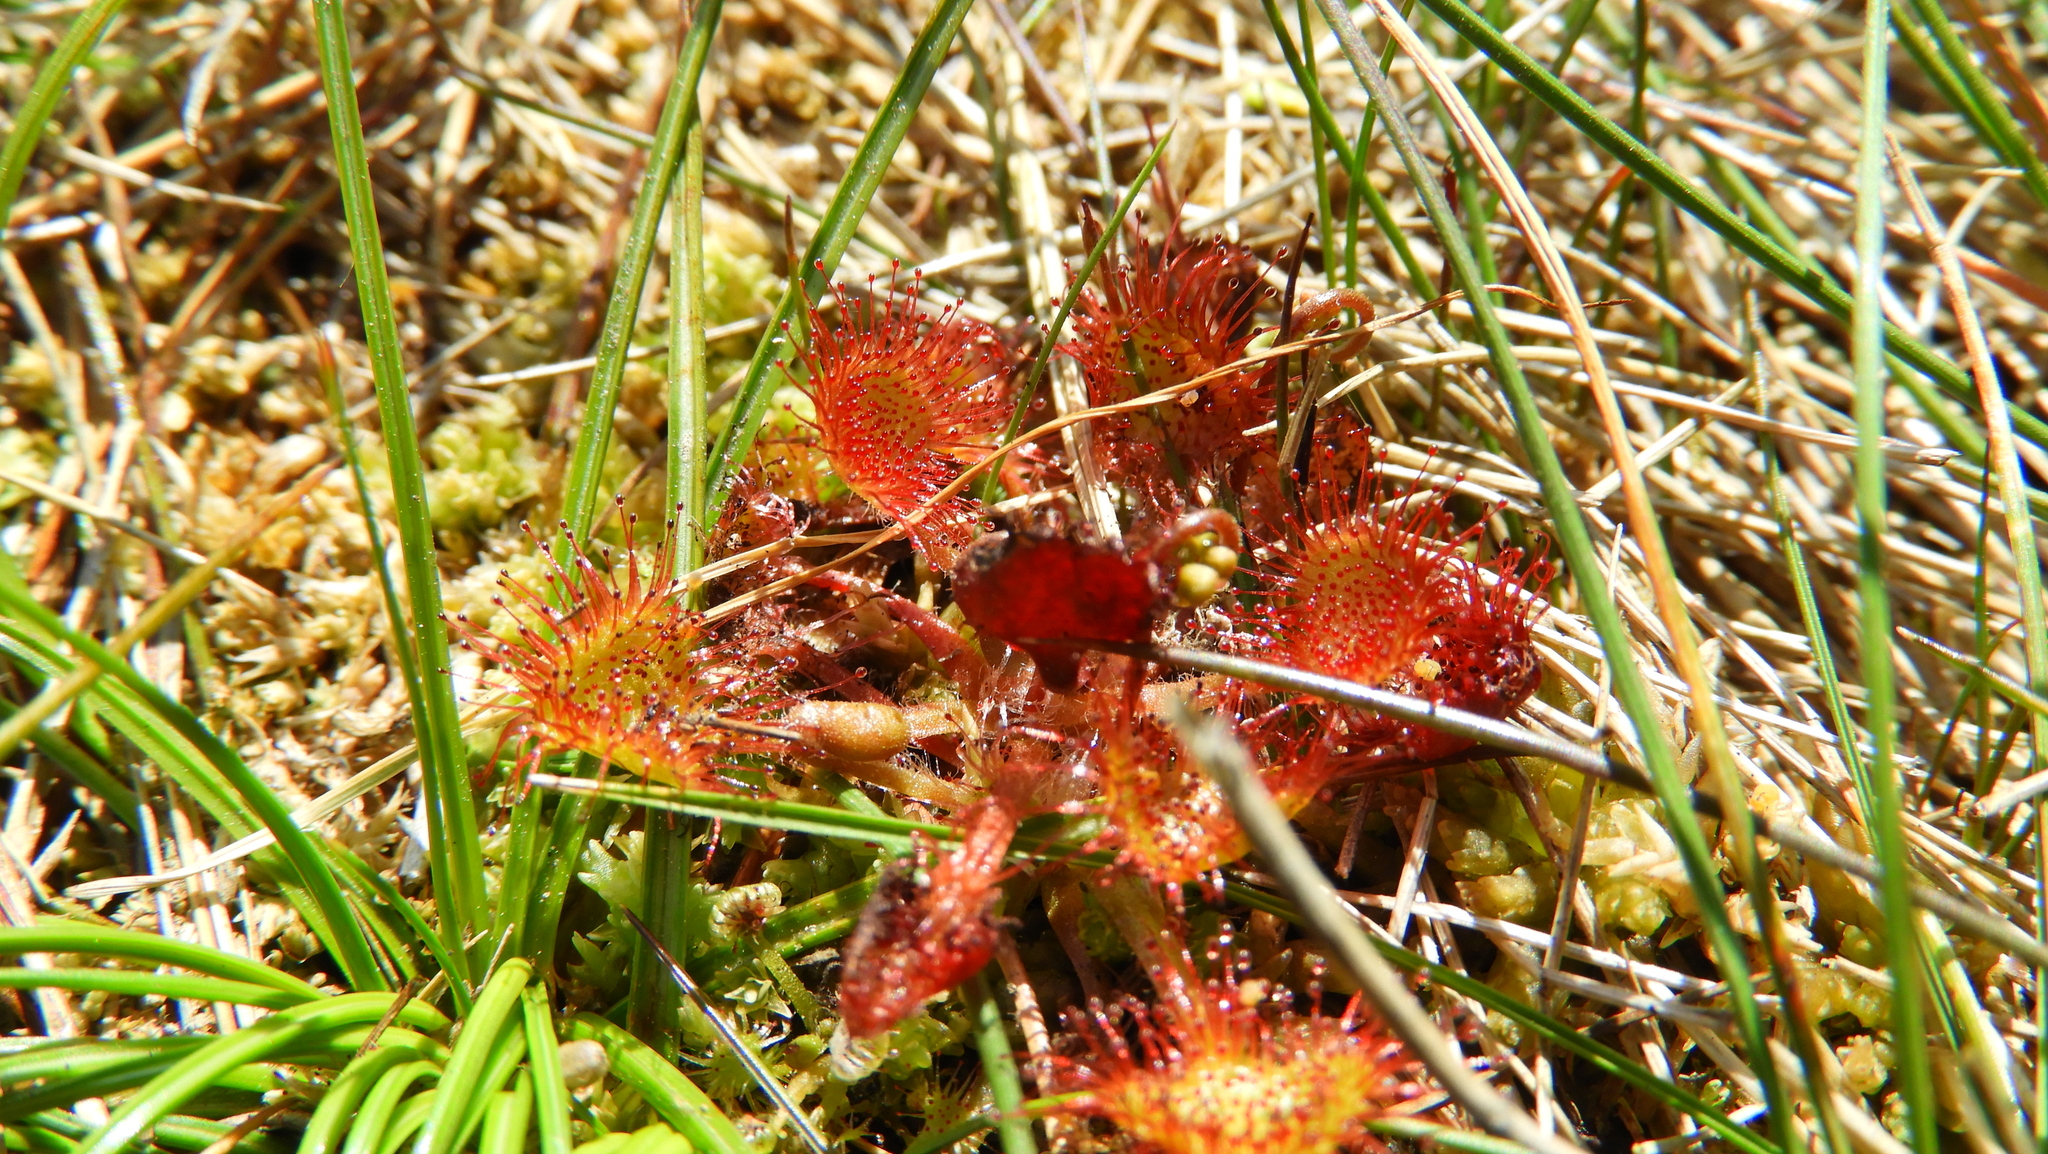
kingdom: Plantae
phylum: Tracheophyta
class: Magnoliopsida
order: Caryophyllales
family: Droseraceae
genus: Drosera
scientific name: Drosera rotundifolia
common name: Round-leaved sundew
